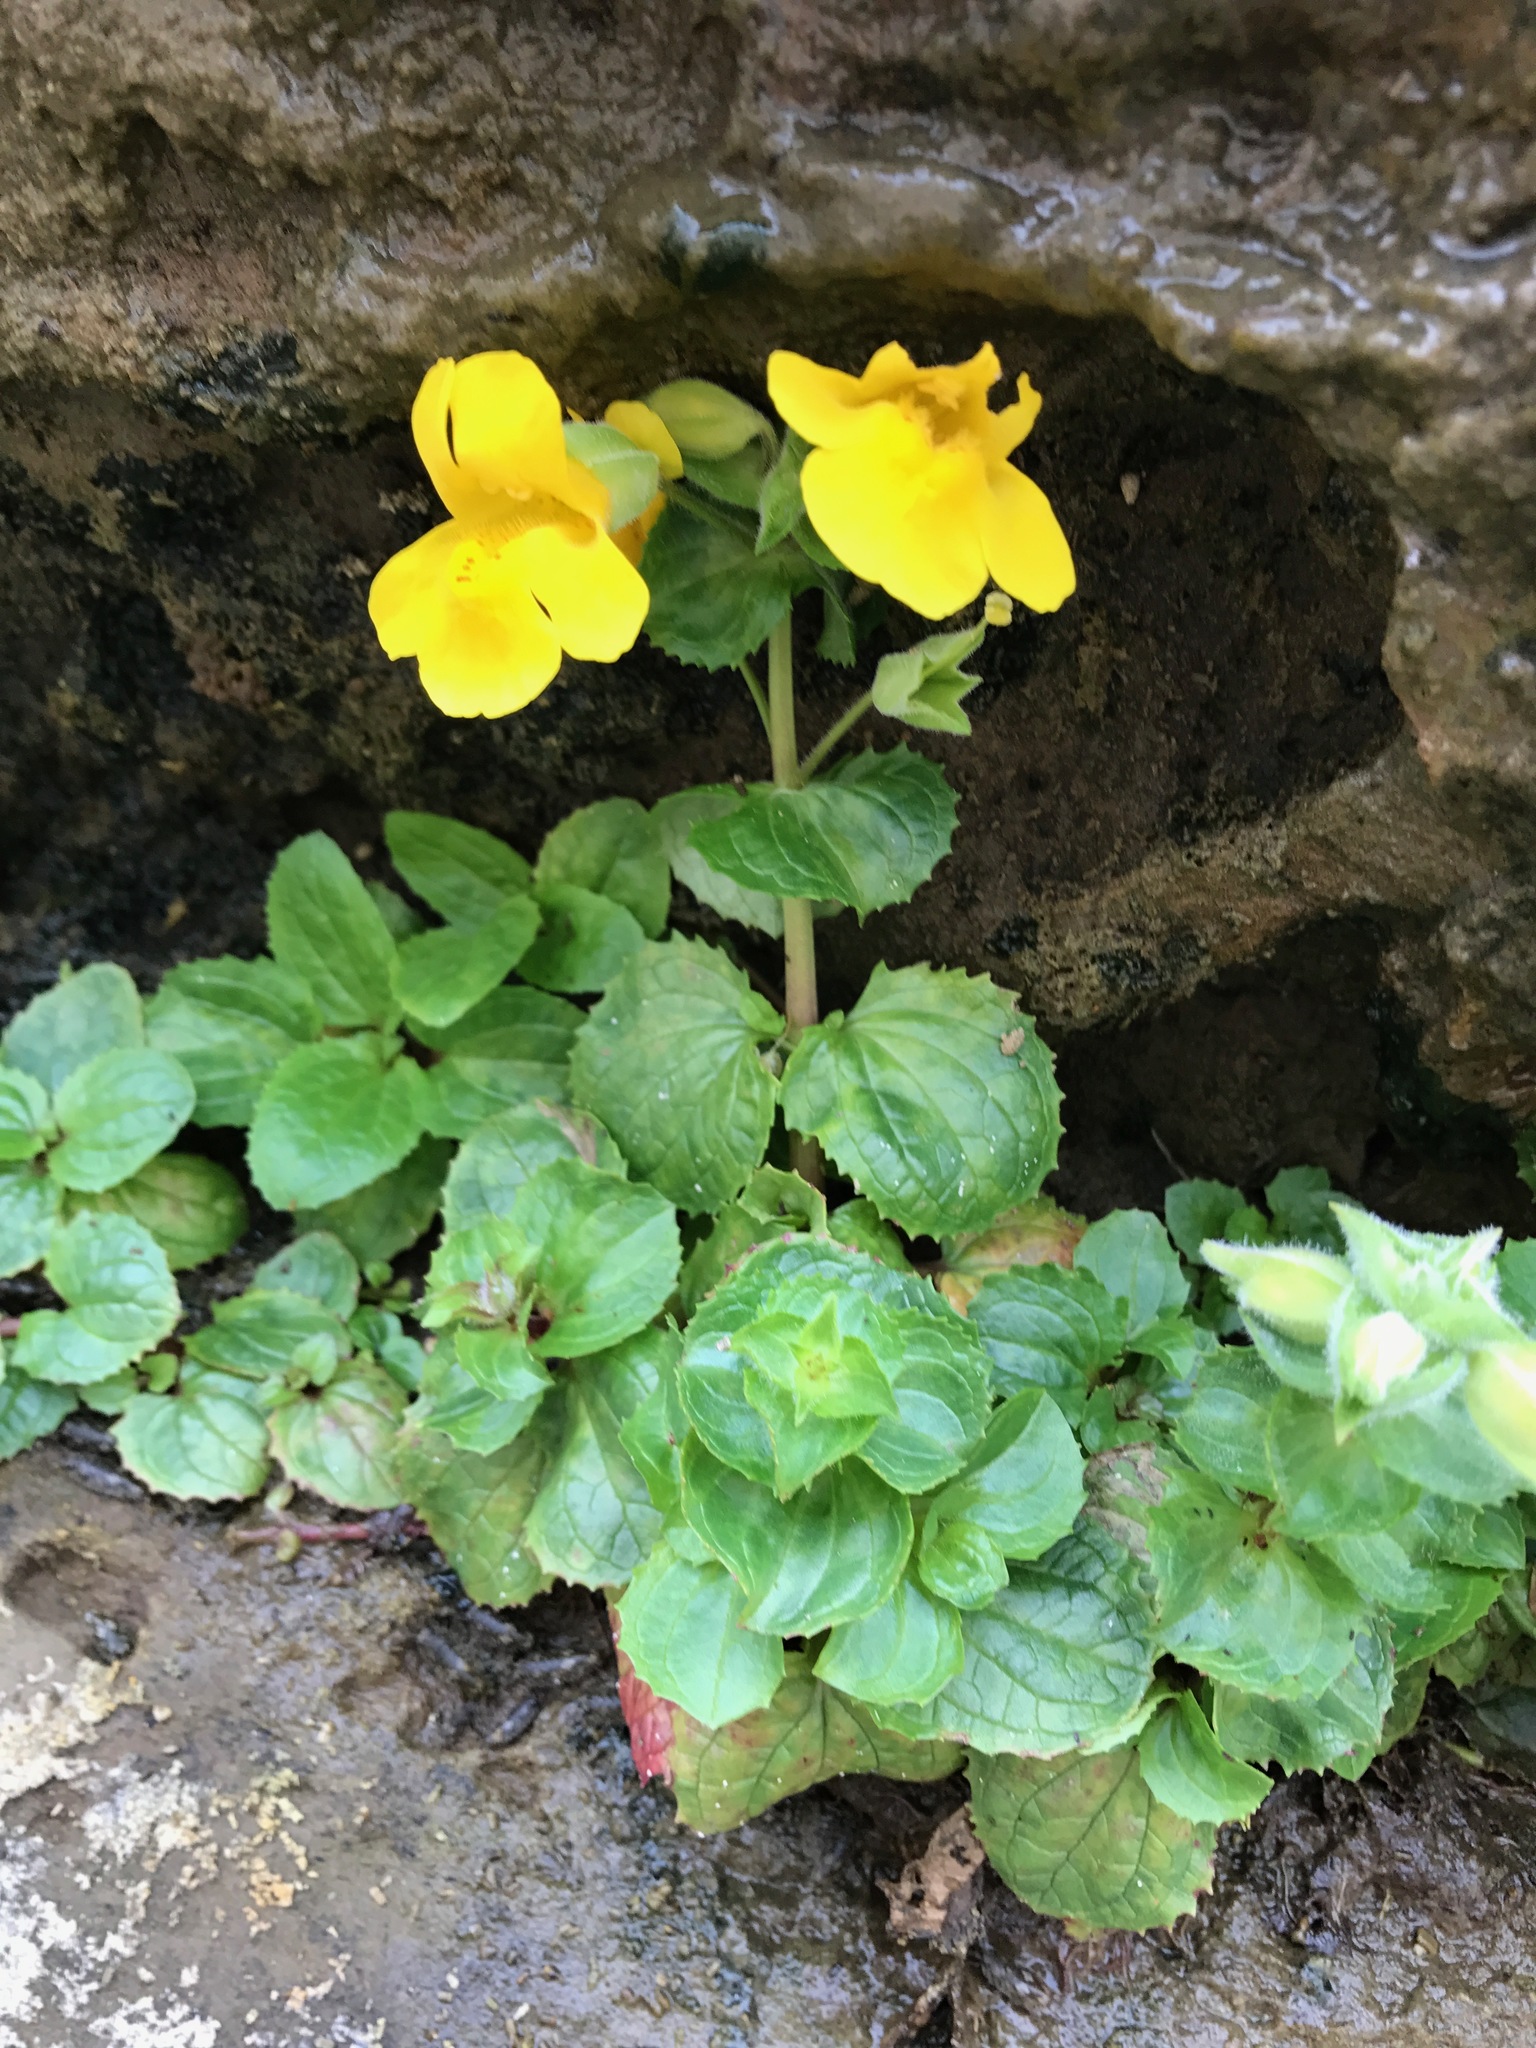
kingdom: Plantae
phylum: Tracheophyta
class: Magnoliopsida
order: Lamiales
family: Phrymaceae
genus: Erythranthe
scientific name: Erythranthe grandis
